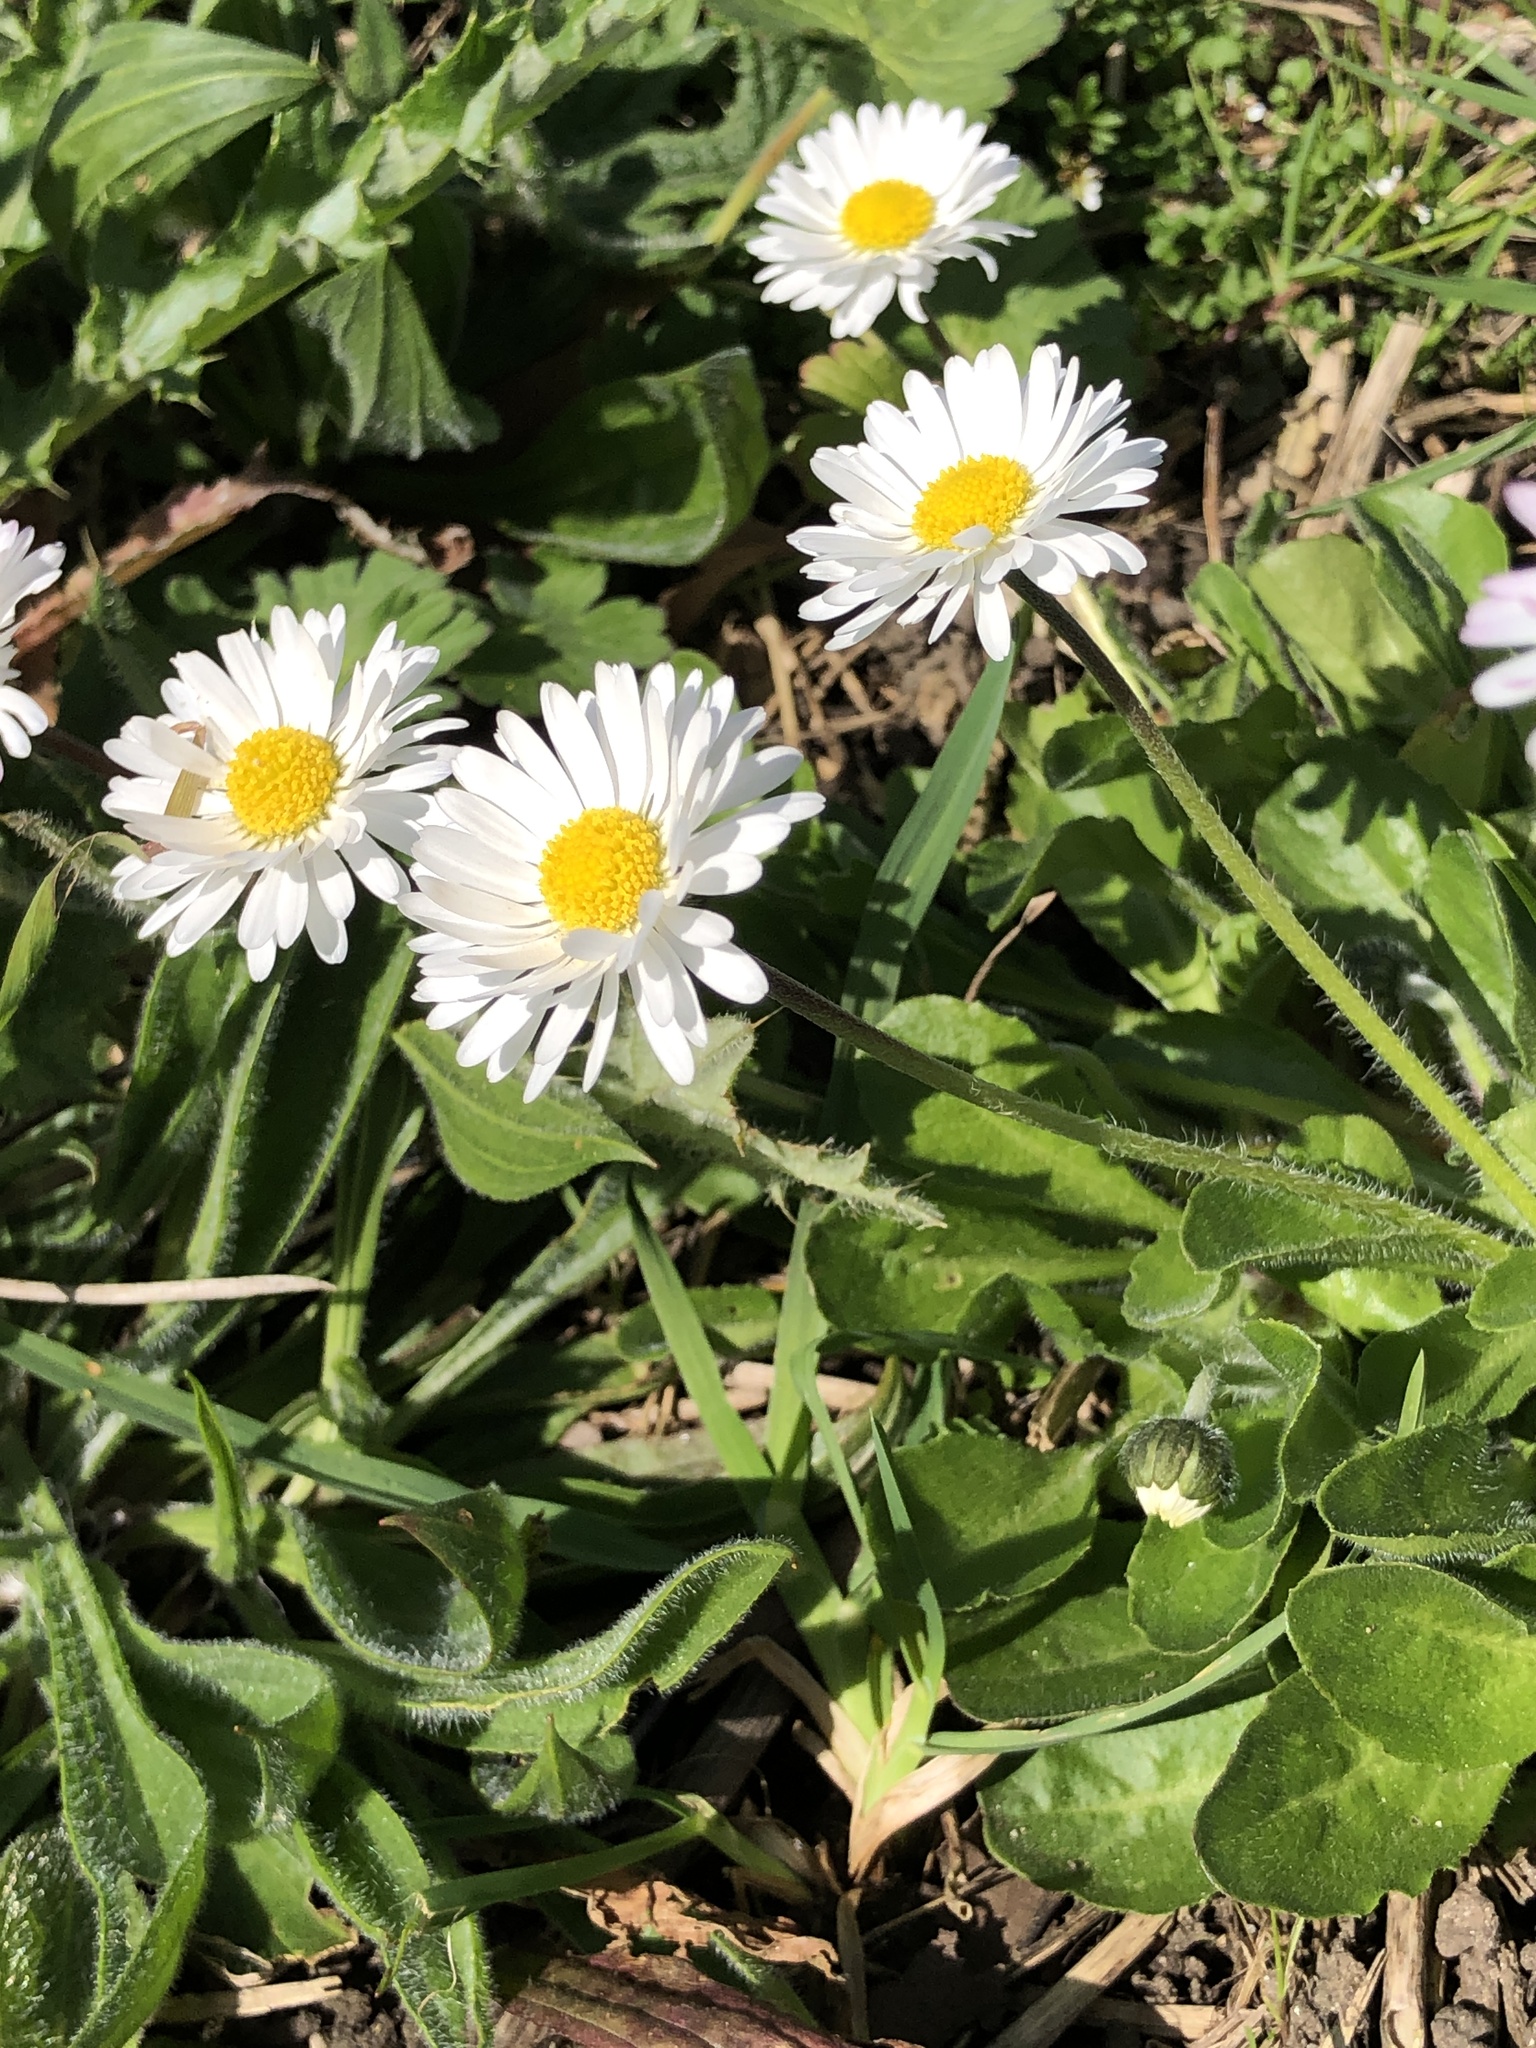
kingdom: Plantae
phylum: Tracheophyta
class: Magnoliopsida
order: Asterales
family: Asteraceae
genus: Bellis
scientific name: Bellis perennis
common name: Lawndaisy
